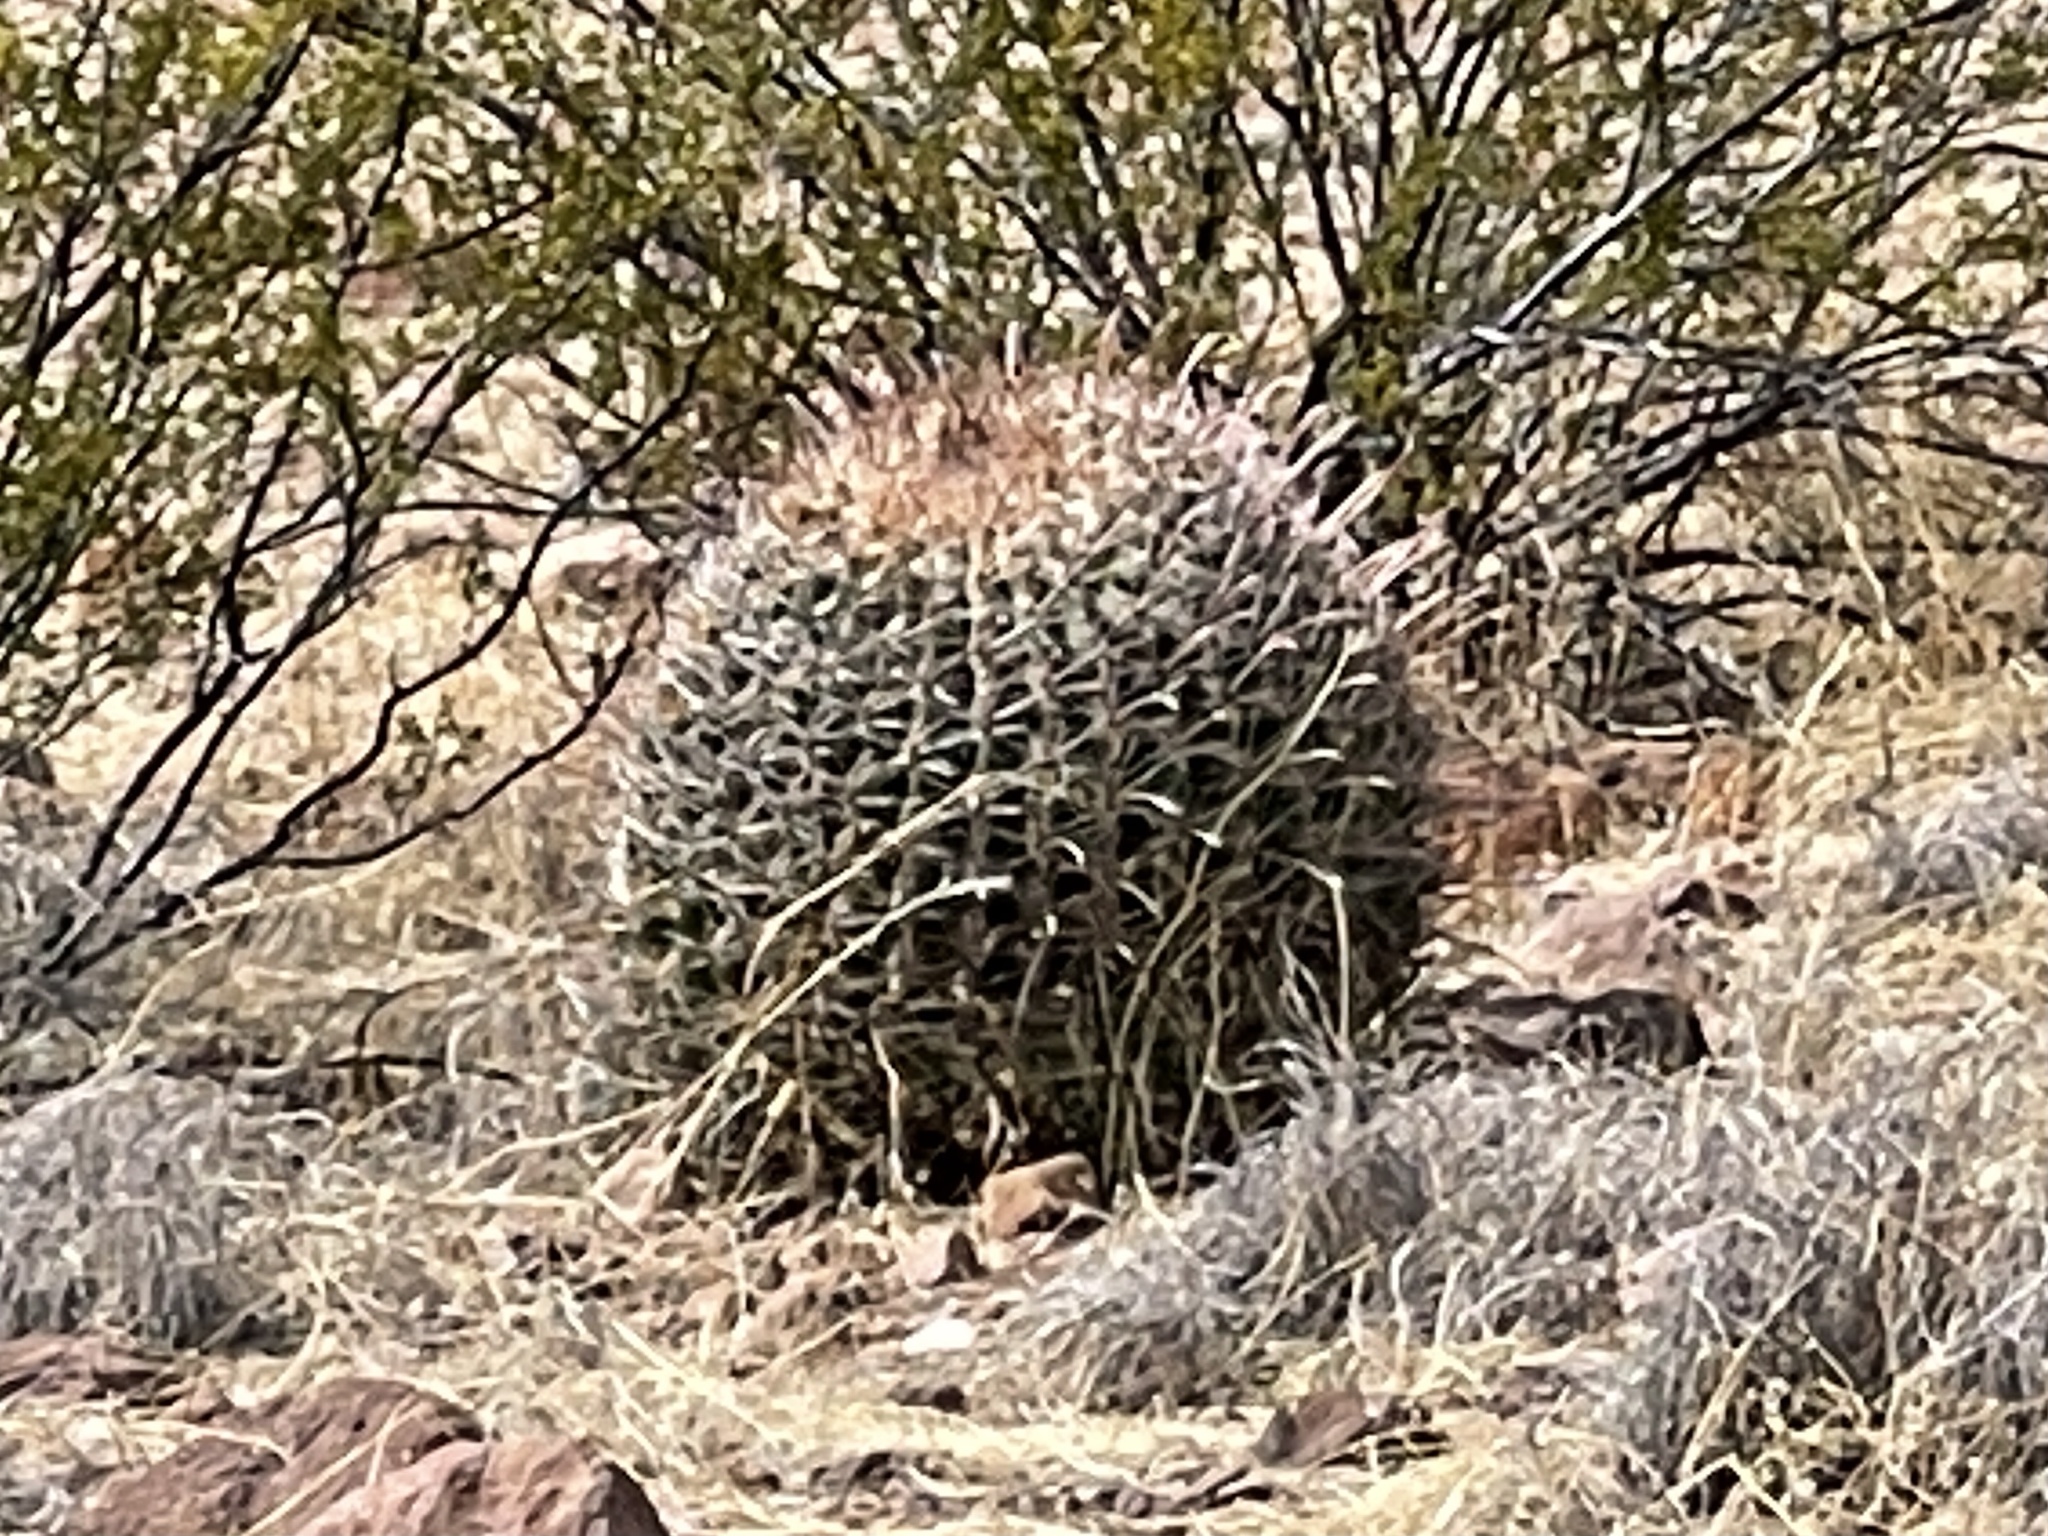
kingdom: Plantae
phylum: Tracheophyta
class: Magnoliopsida
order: Caryophyllales
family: Cactaceae
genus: Ferocactus
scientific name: Ferocactus wislizeni
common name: Candy barrel cactus
